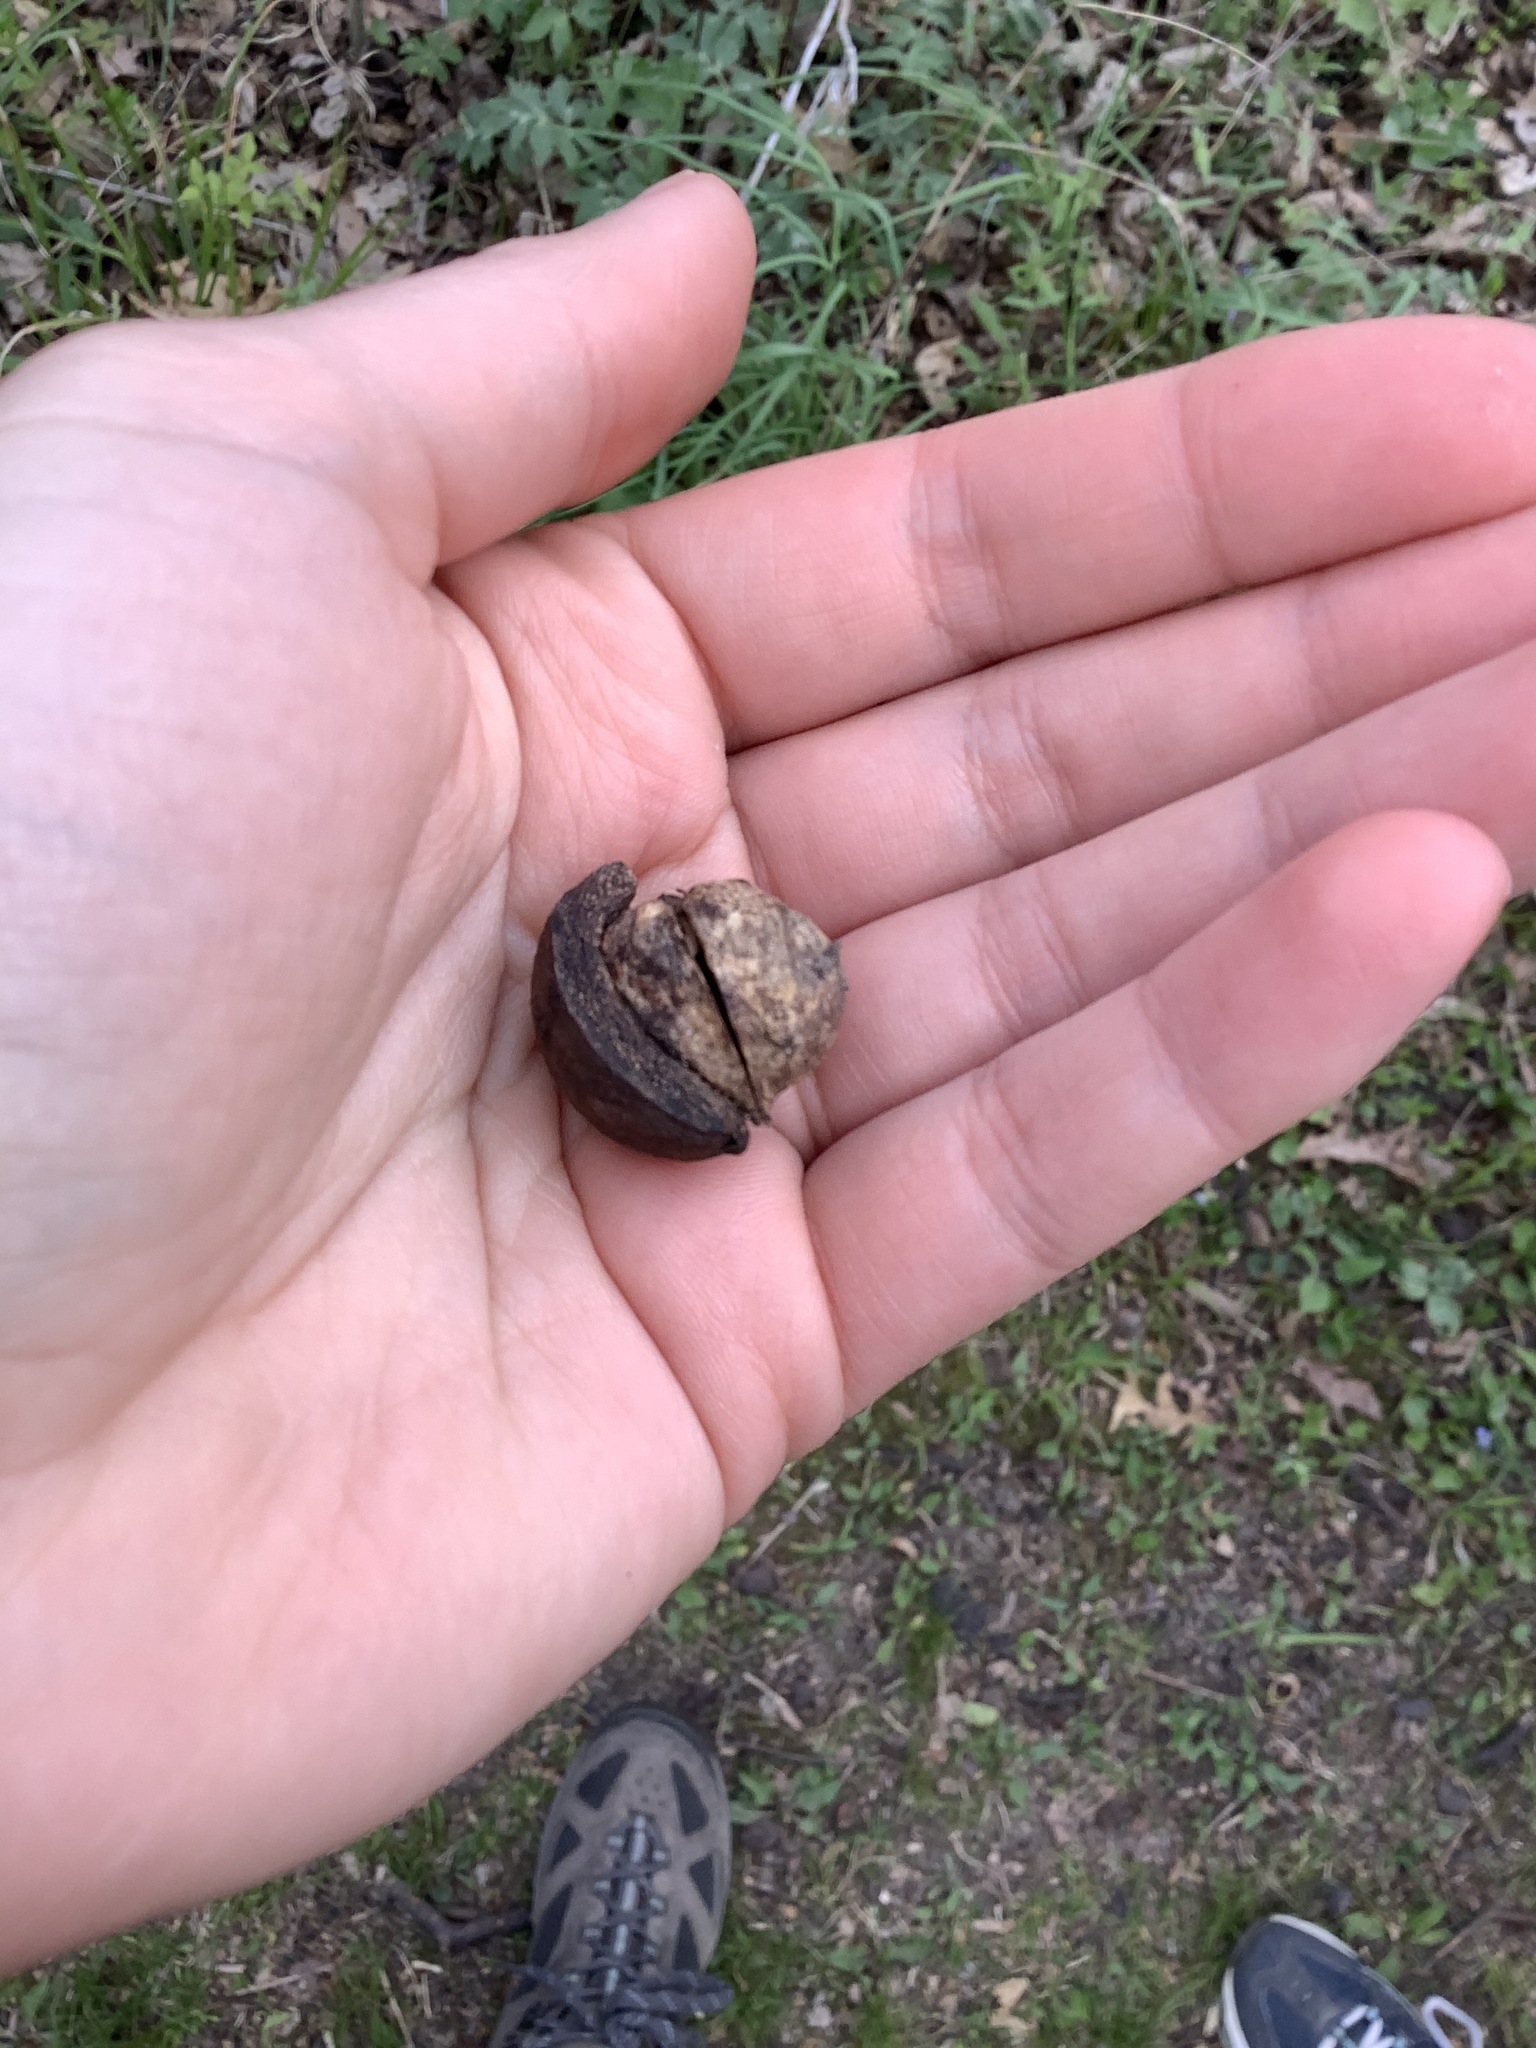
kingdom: Plantae
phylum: Tracheophyta
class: Magnoliopsida
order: Fagales
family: Juglandaceae
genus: Carya
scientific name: Carya ovata
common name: Shagbark hickory
